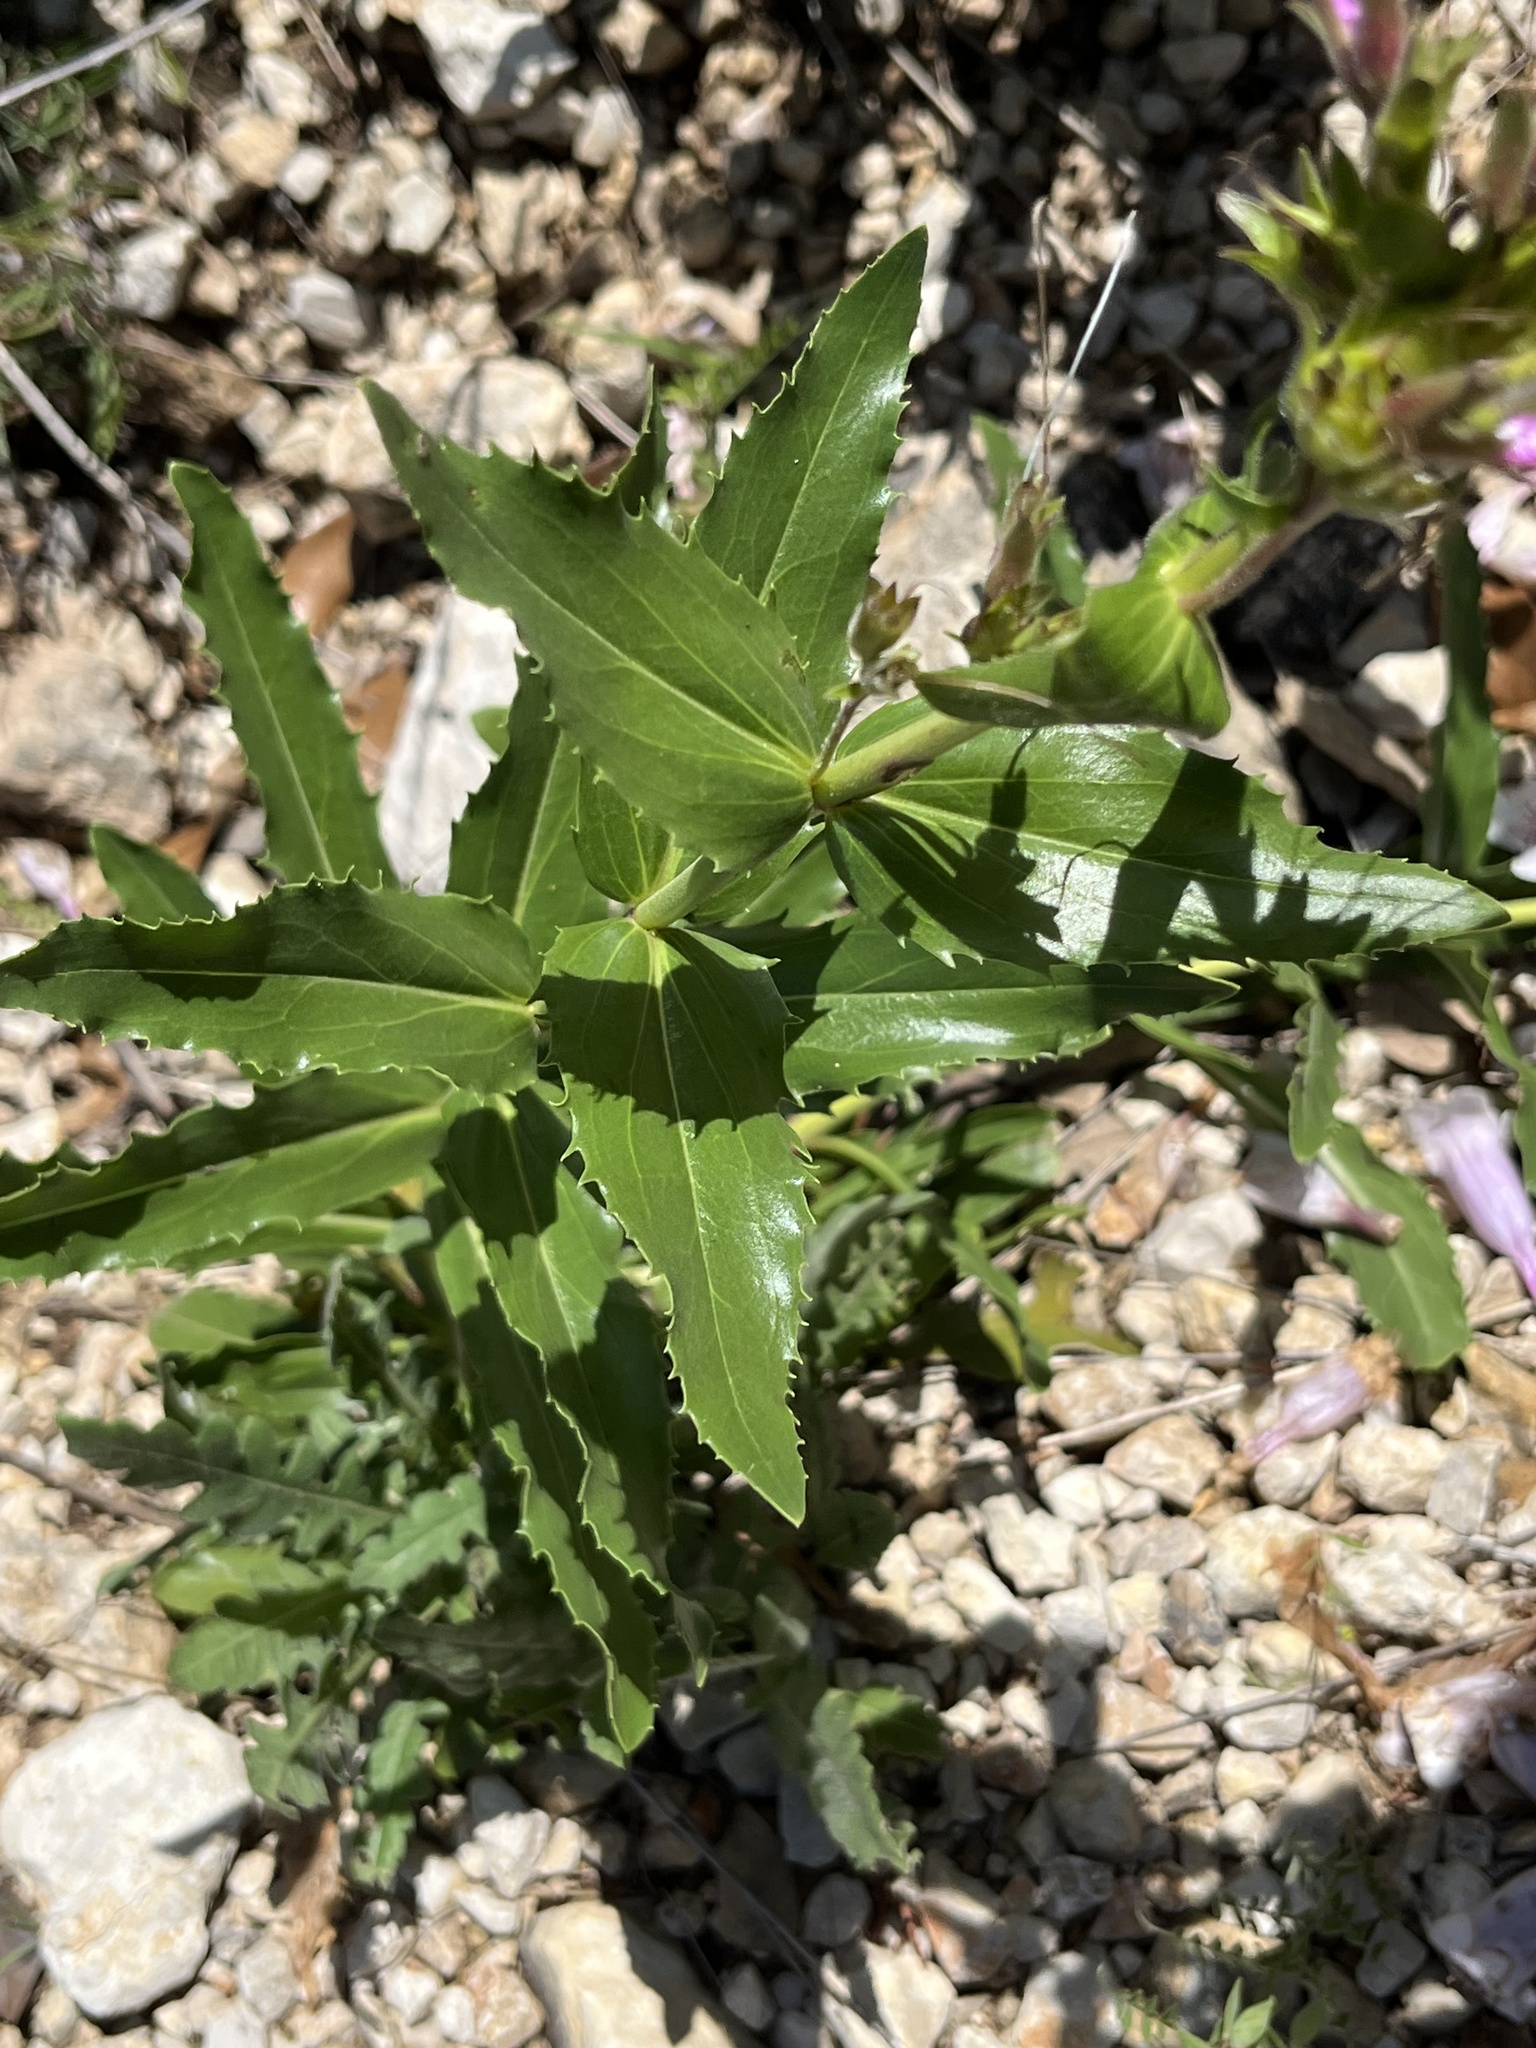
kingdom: Plantae
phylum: Tracheophyta
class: Magnoliopsida
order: Lamiales
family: Plantaginaceae
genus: Penstemon
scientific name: Penstemon cobaea
